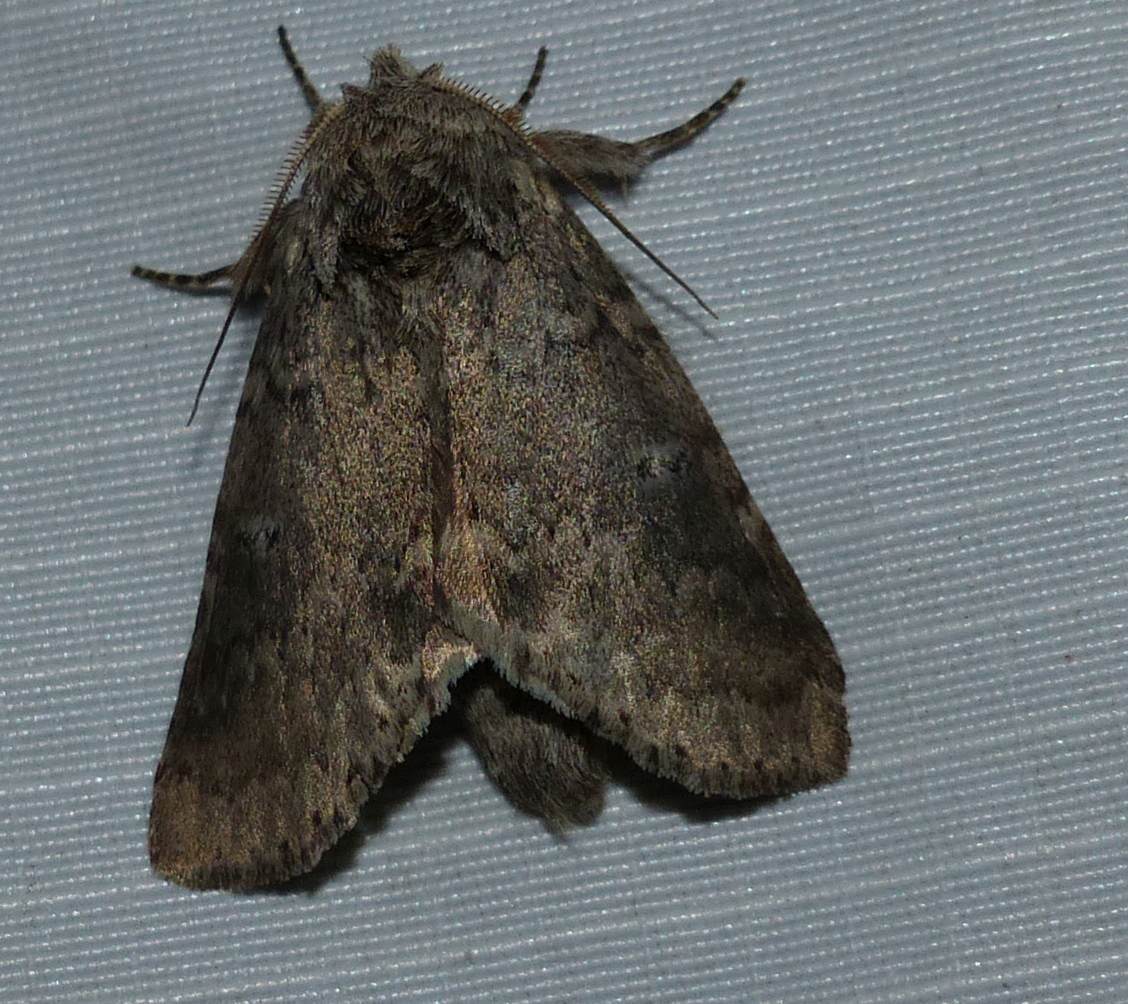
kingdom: Animalia
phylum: Arthropoda
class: Insecta
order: Lepidoptera
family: Notodontidae
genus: Lochmaeus
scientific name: Lochmaeus manteo
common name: Variable oakleaf caterpillar moth
